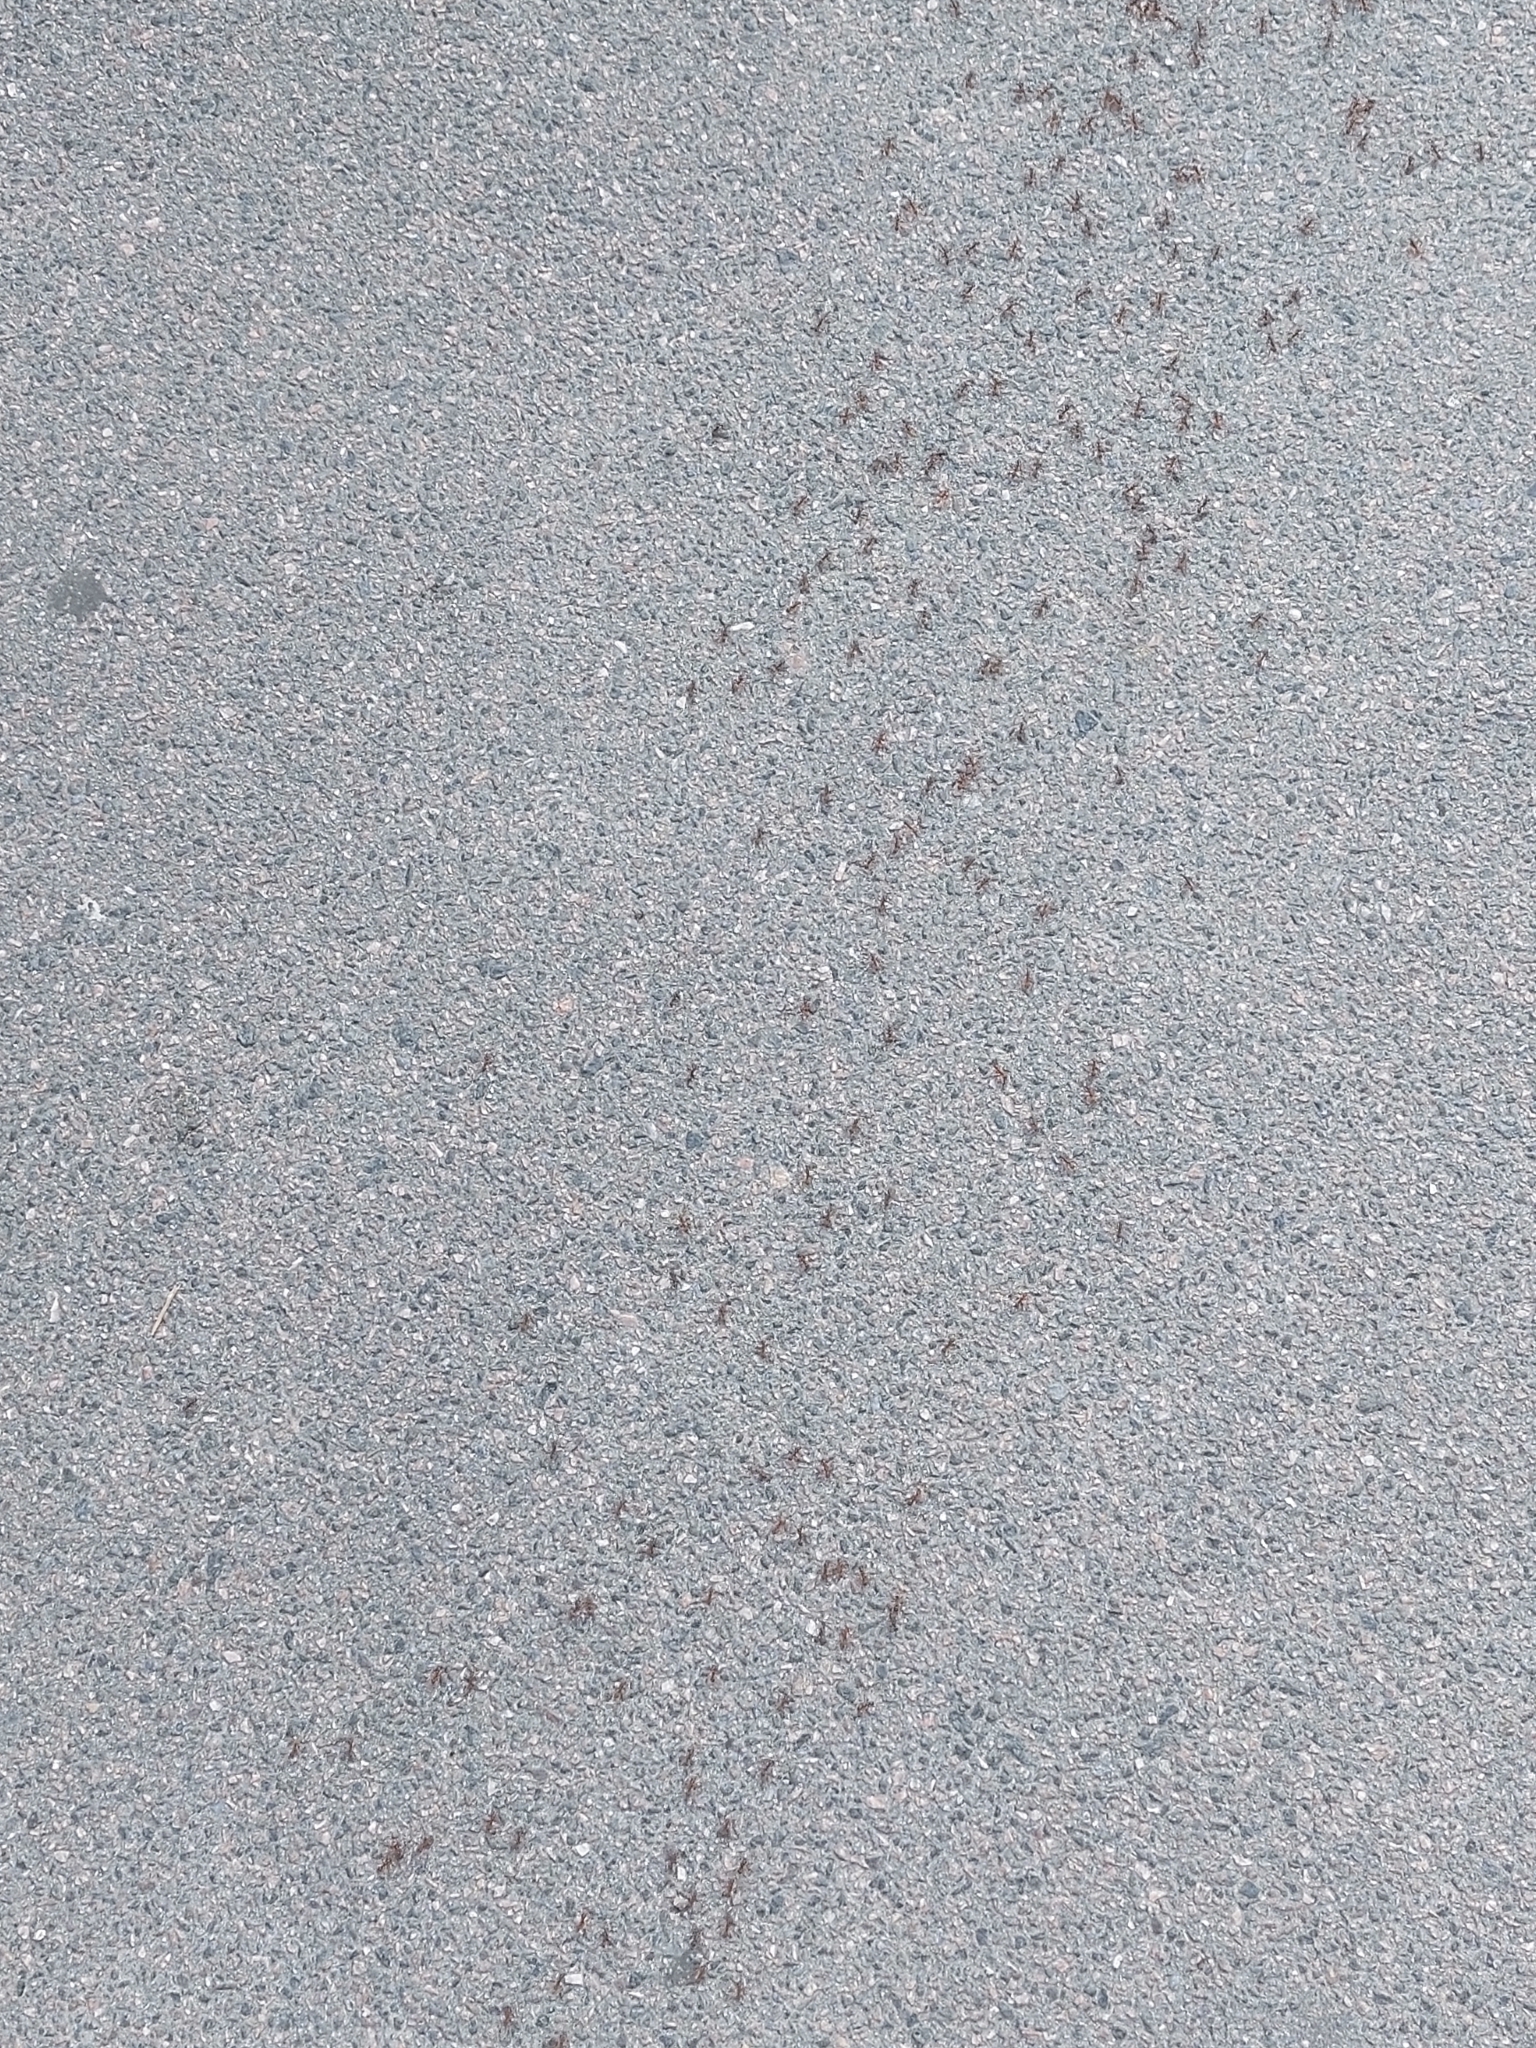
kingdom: Animalia
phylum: Arthropoda
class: Insecta
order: Hymenoptera
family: Formicidae
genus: Polyergus
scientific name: Polyergus rufescens
